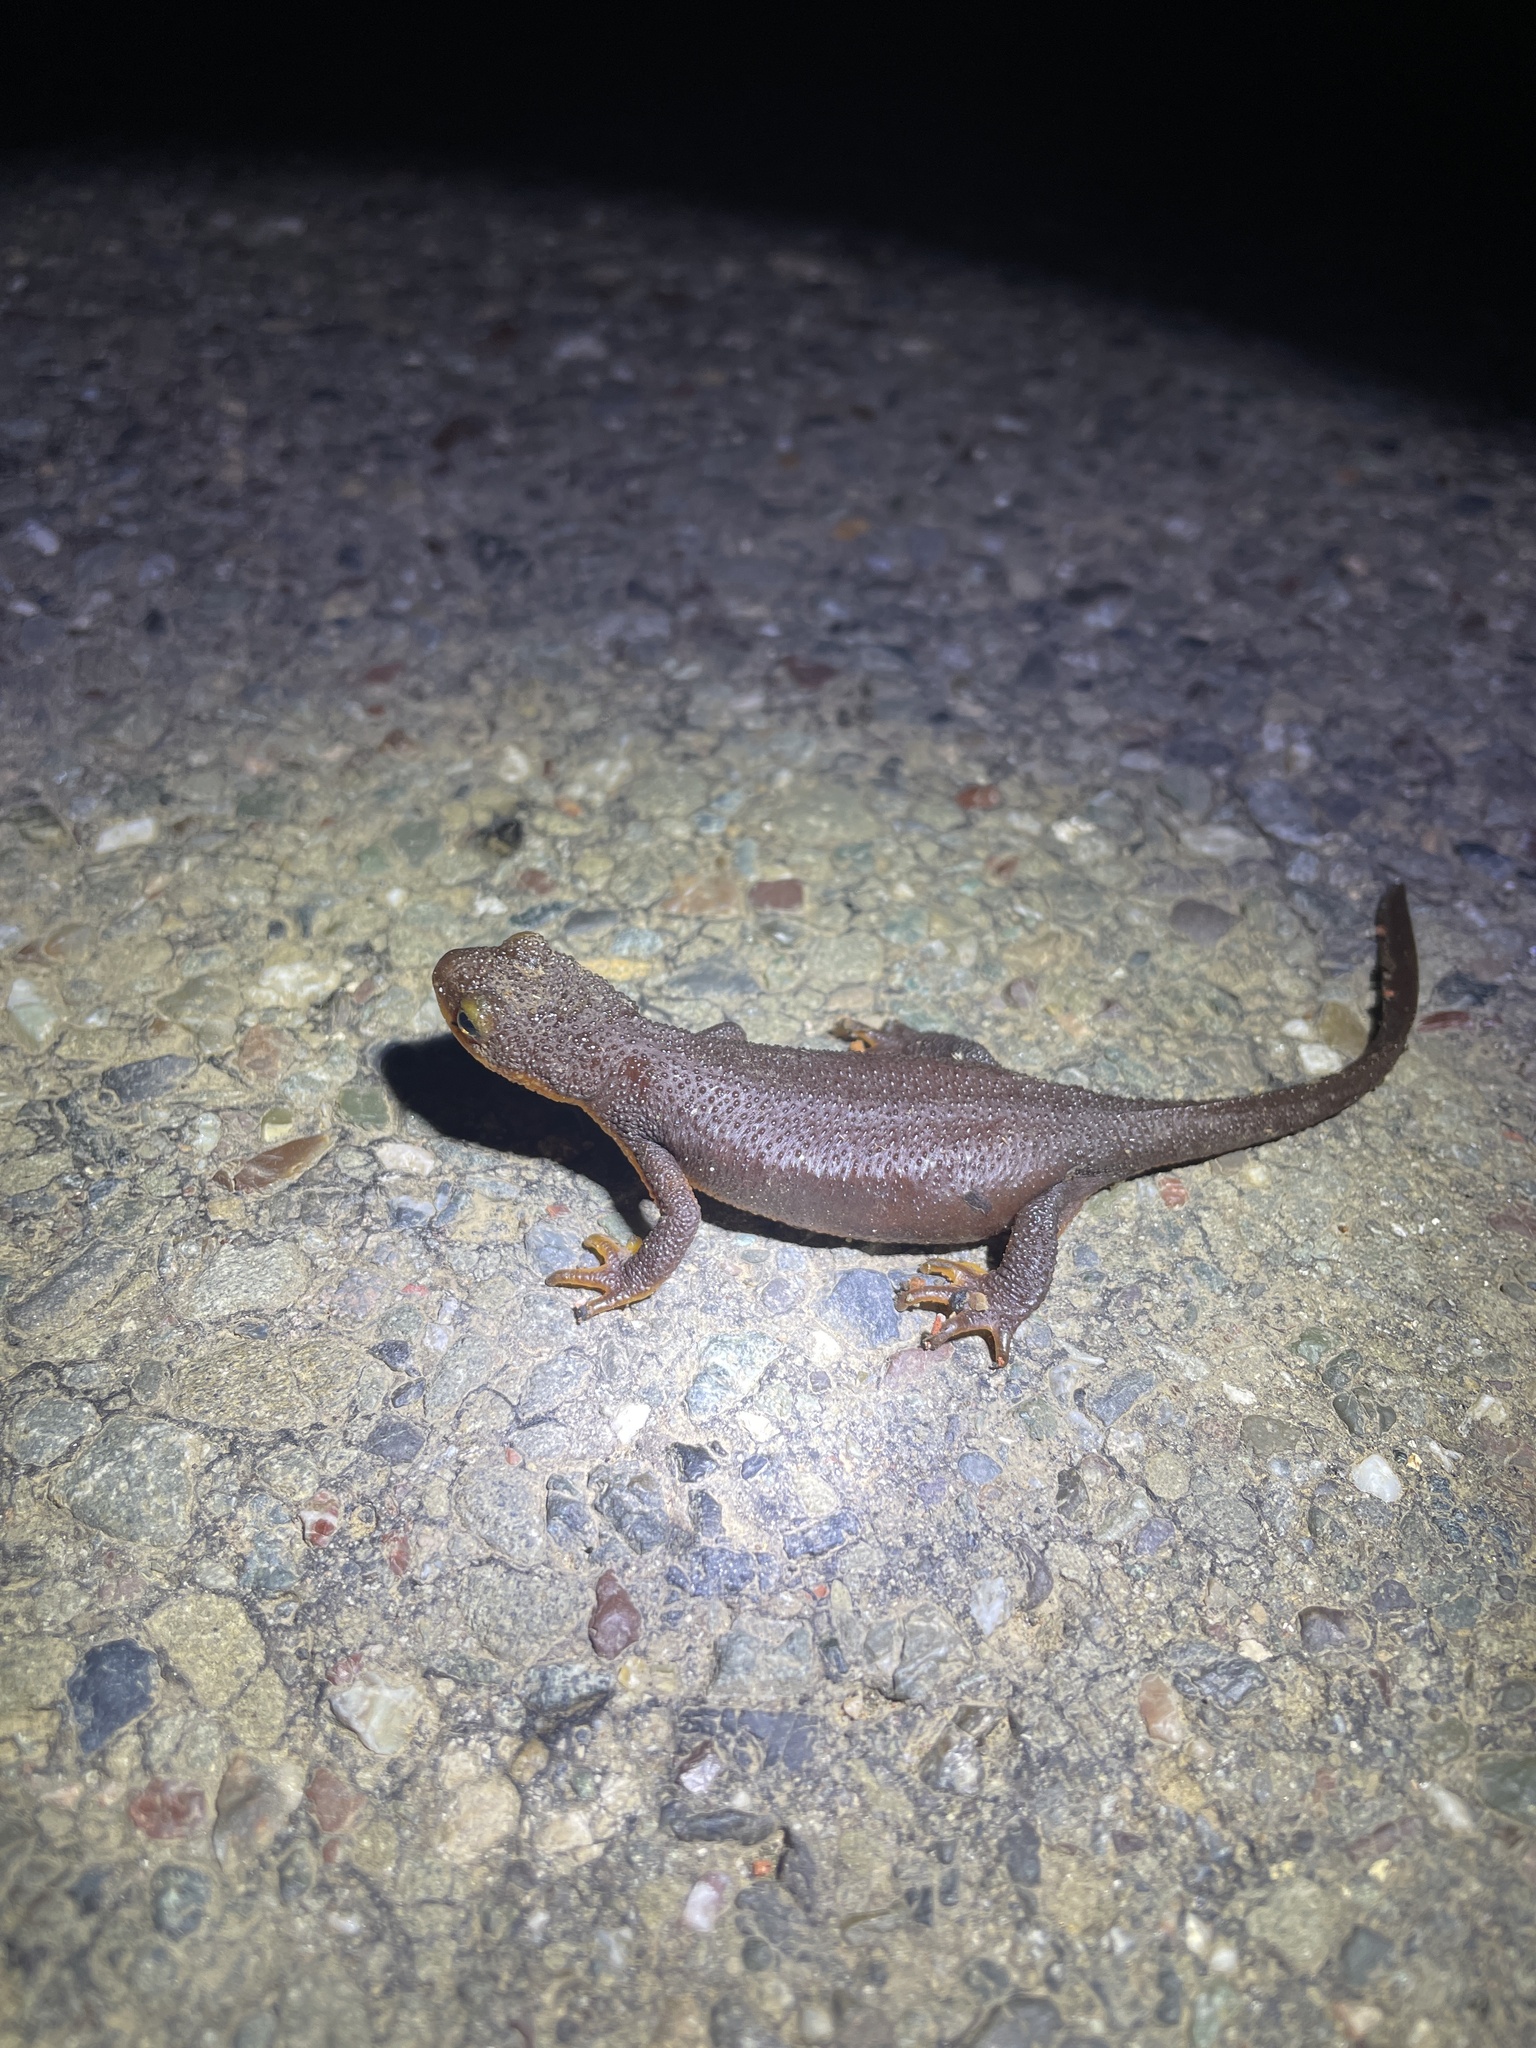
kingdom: Animalia
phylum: Chordata
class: Amphibia
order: Caudata
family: Salamandridae
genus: Taricha
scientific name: Taricha torosa
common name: California newt
